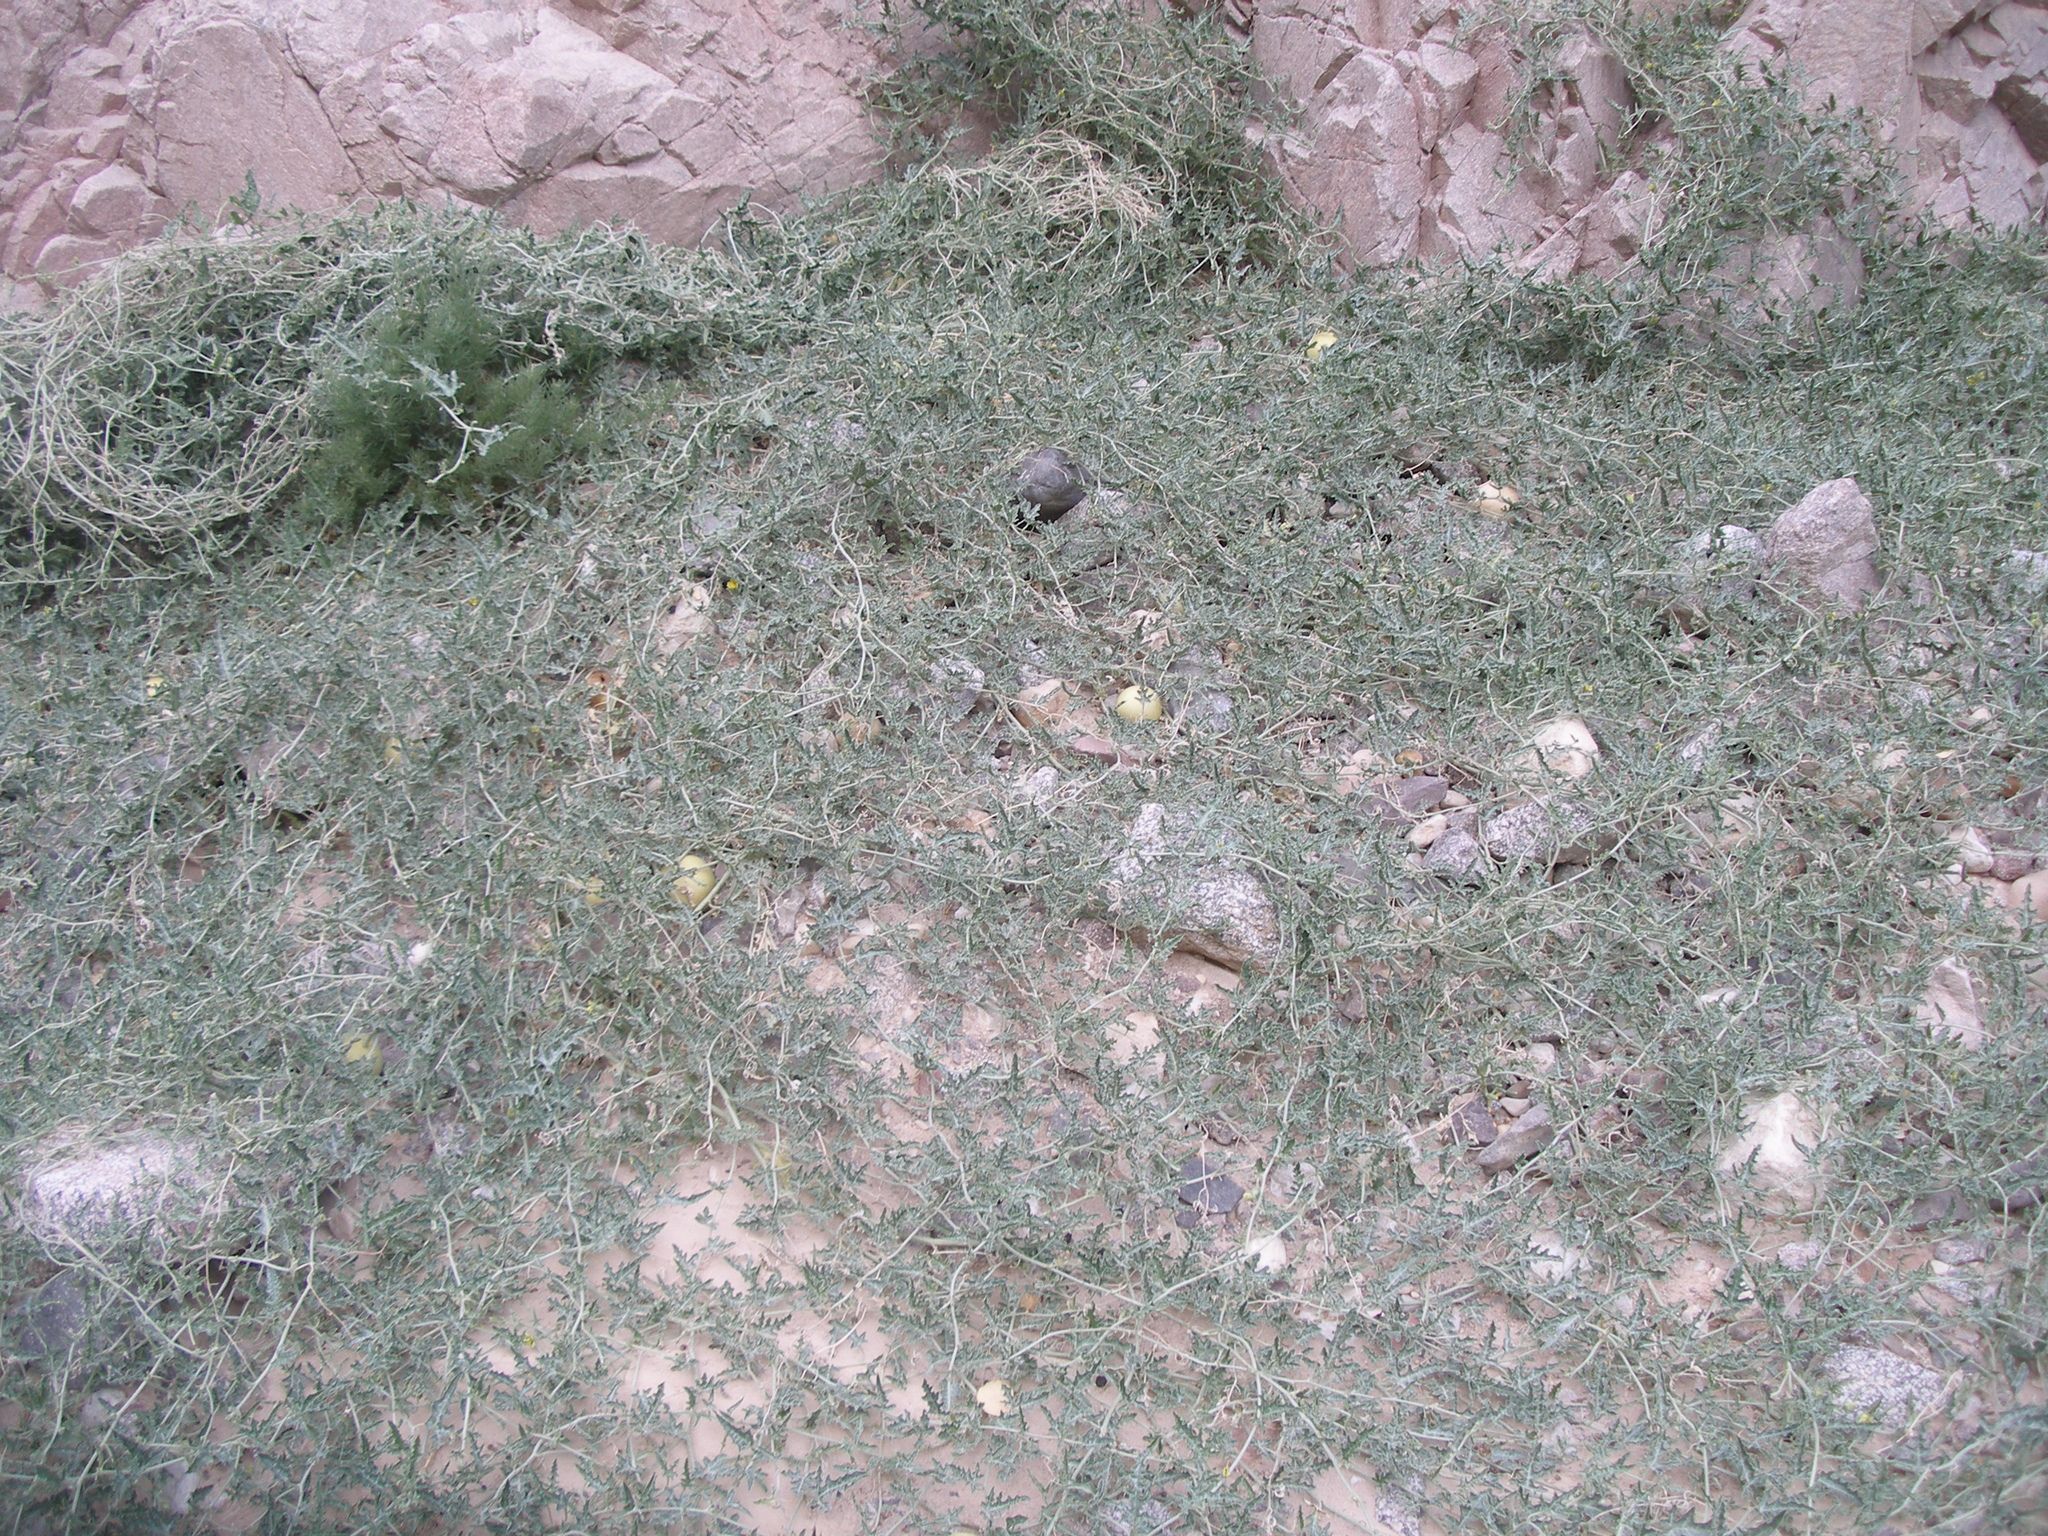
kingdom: Plantae
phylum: Tracheophyta
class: Magnoliopsida
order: Cucurbitales
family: Cucurbitaceae
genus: Citrullus
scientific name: Citrullus colocynthis
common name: Colocynth
